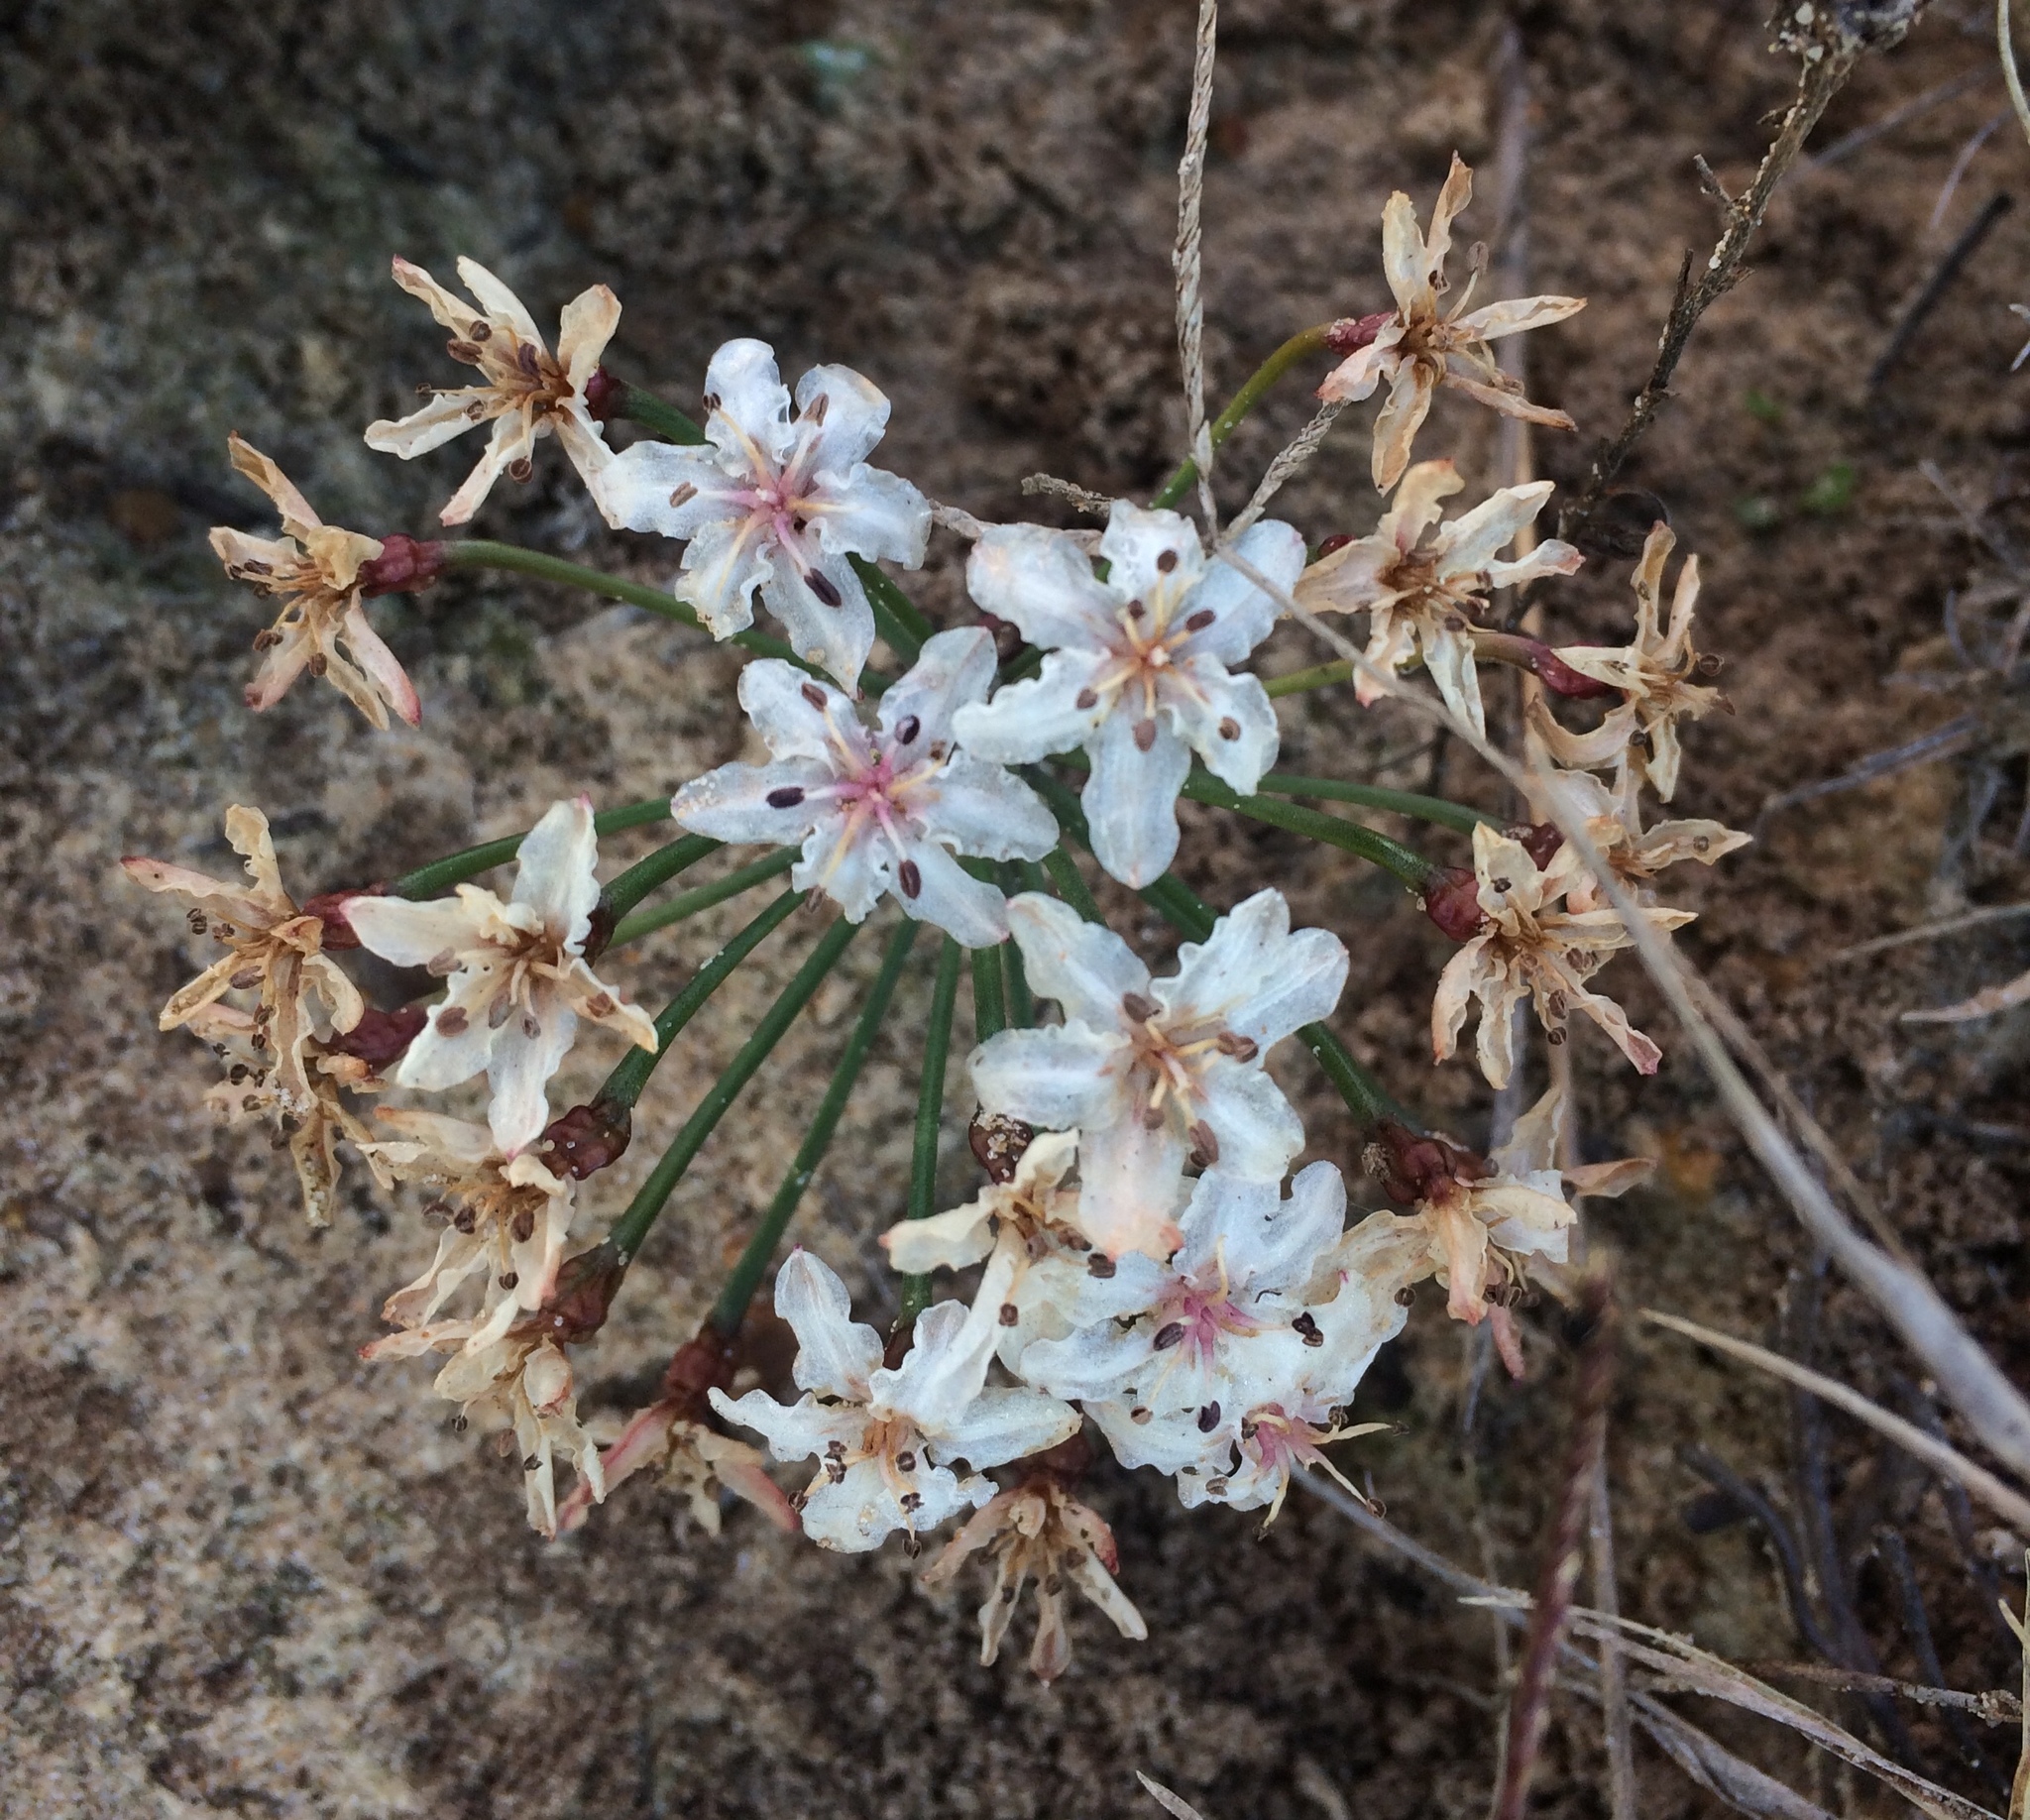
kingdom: Plantae
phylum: Tracheophyta
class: Liliopsida
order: Asparagales
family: Amaryllidaceae
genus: Hessea
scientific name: Hessea cinnamomea
